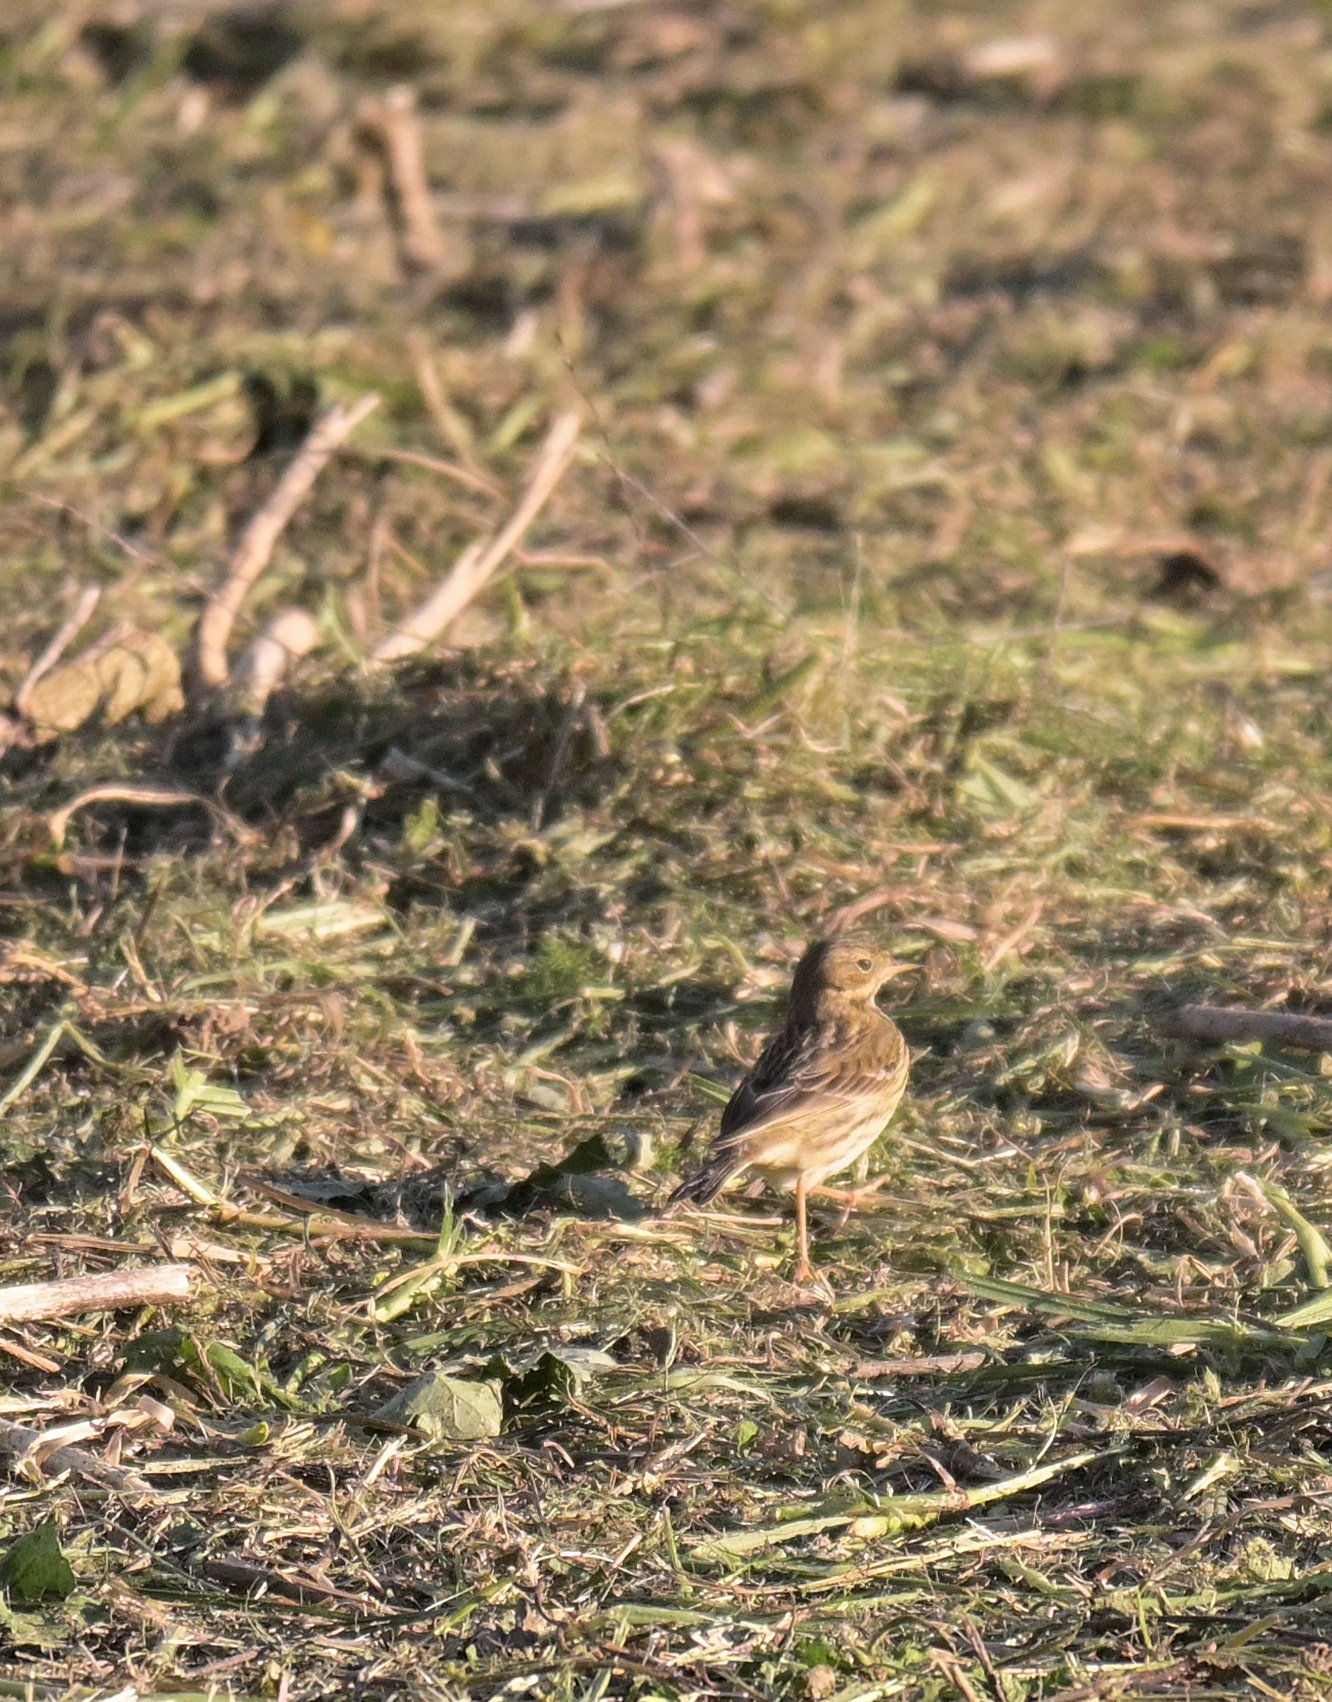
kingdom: Animalia
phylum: Chordata
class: Aves
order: Passeriformes
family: Motacillidae
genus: Anthus
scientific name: Anthus pratensis
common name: Meadow pipit
